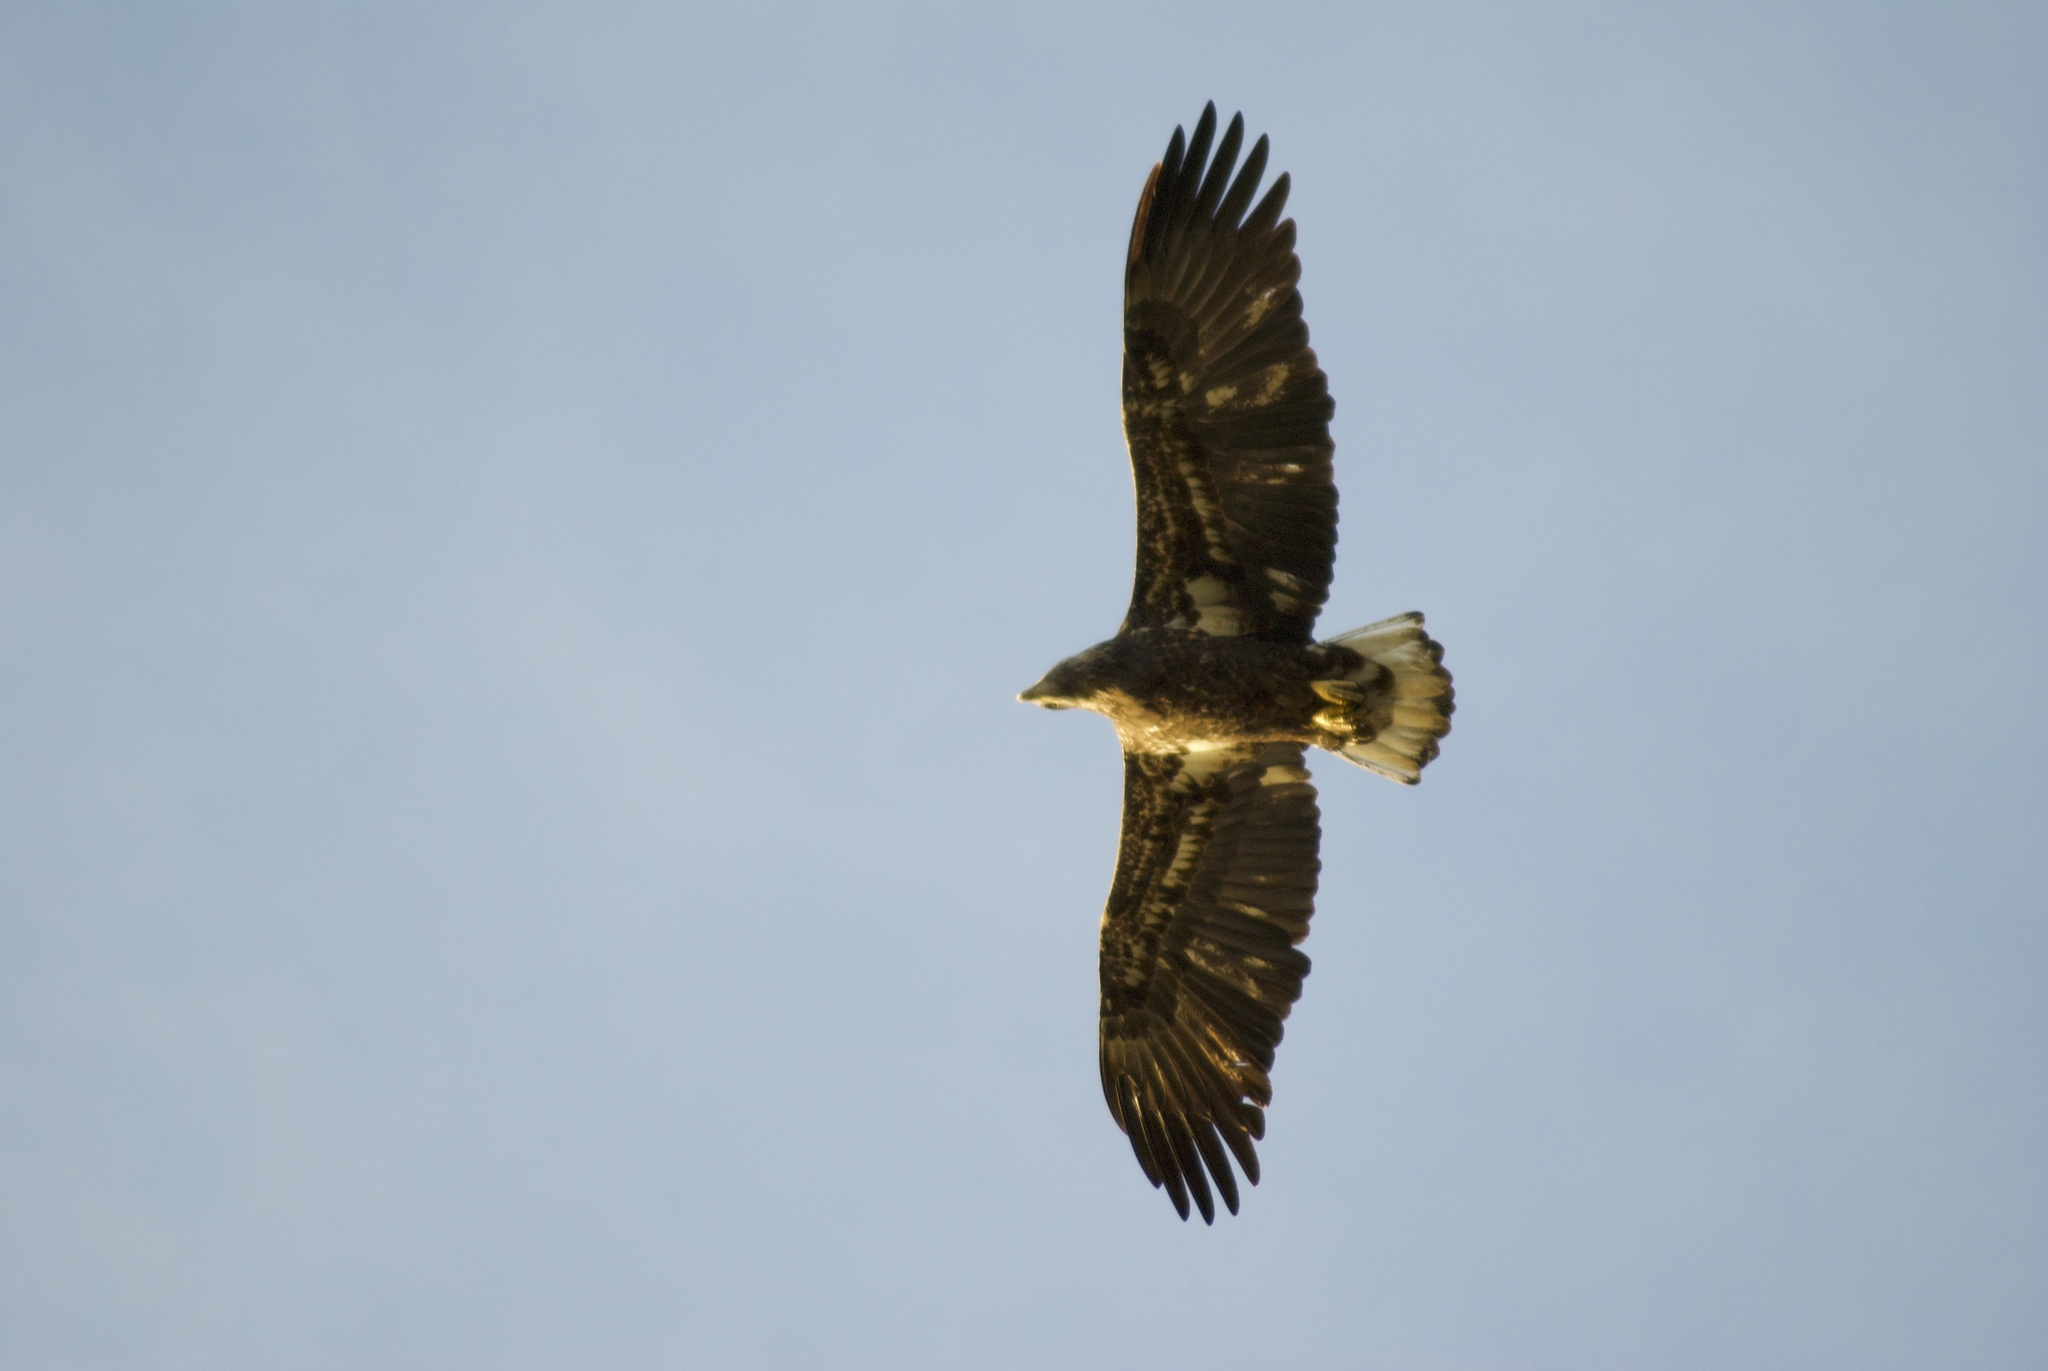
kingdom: Animalia
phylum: Chordata
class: Aves
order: Accipitriformes
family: Accipitridae
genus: Haliaeetus
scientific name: Haliaeetus leucocephalus
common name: Bald eagle
